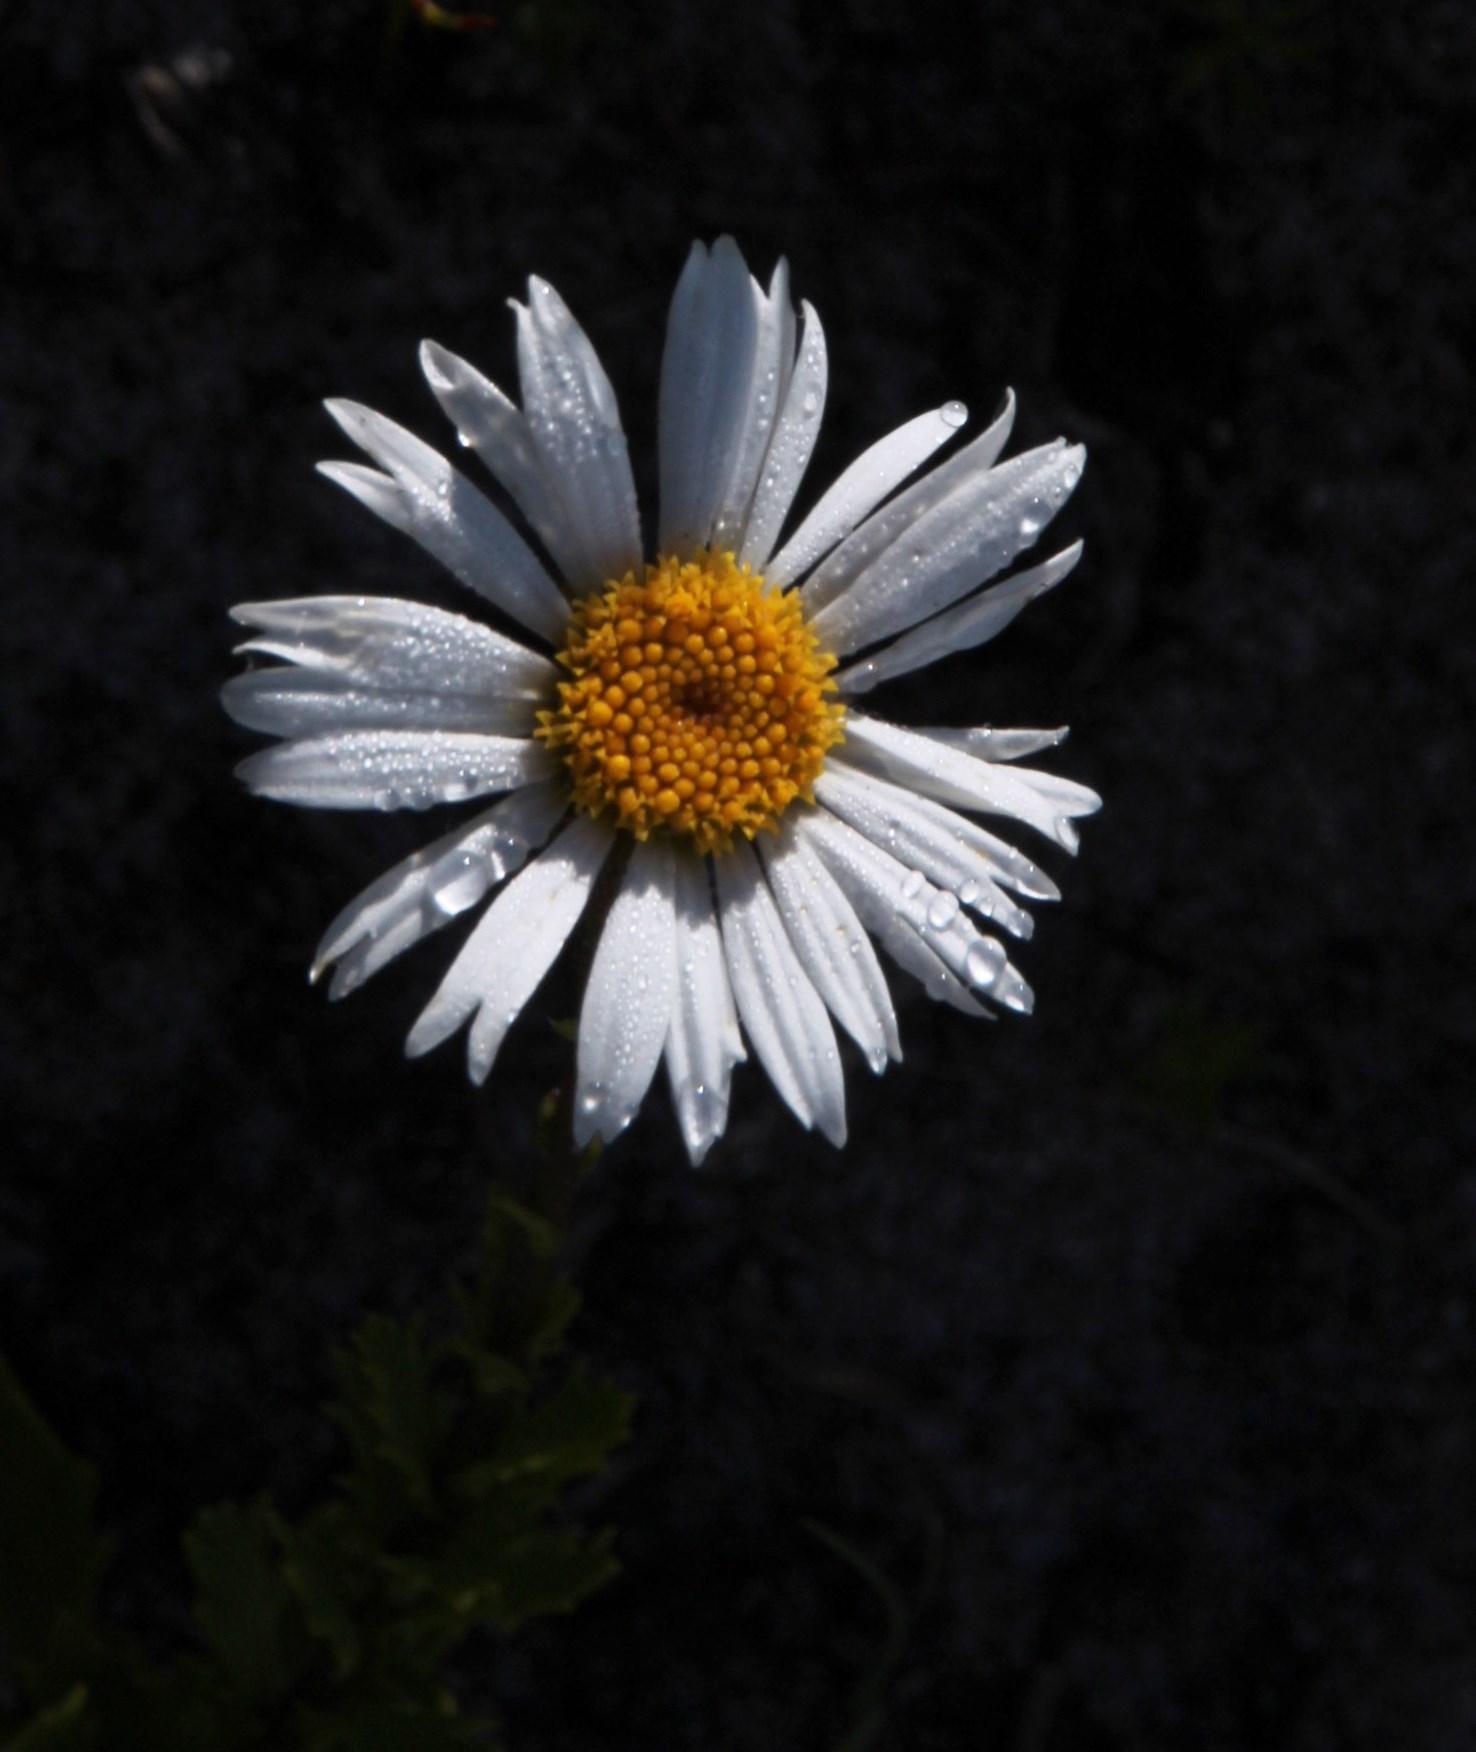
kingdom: Plantae
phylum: Tracheophyta
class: Magnoliopsida
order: Asterales
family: Asteraceae
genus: Osmitopsis
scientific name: Osmitopsis dentata
